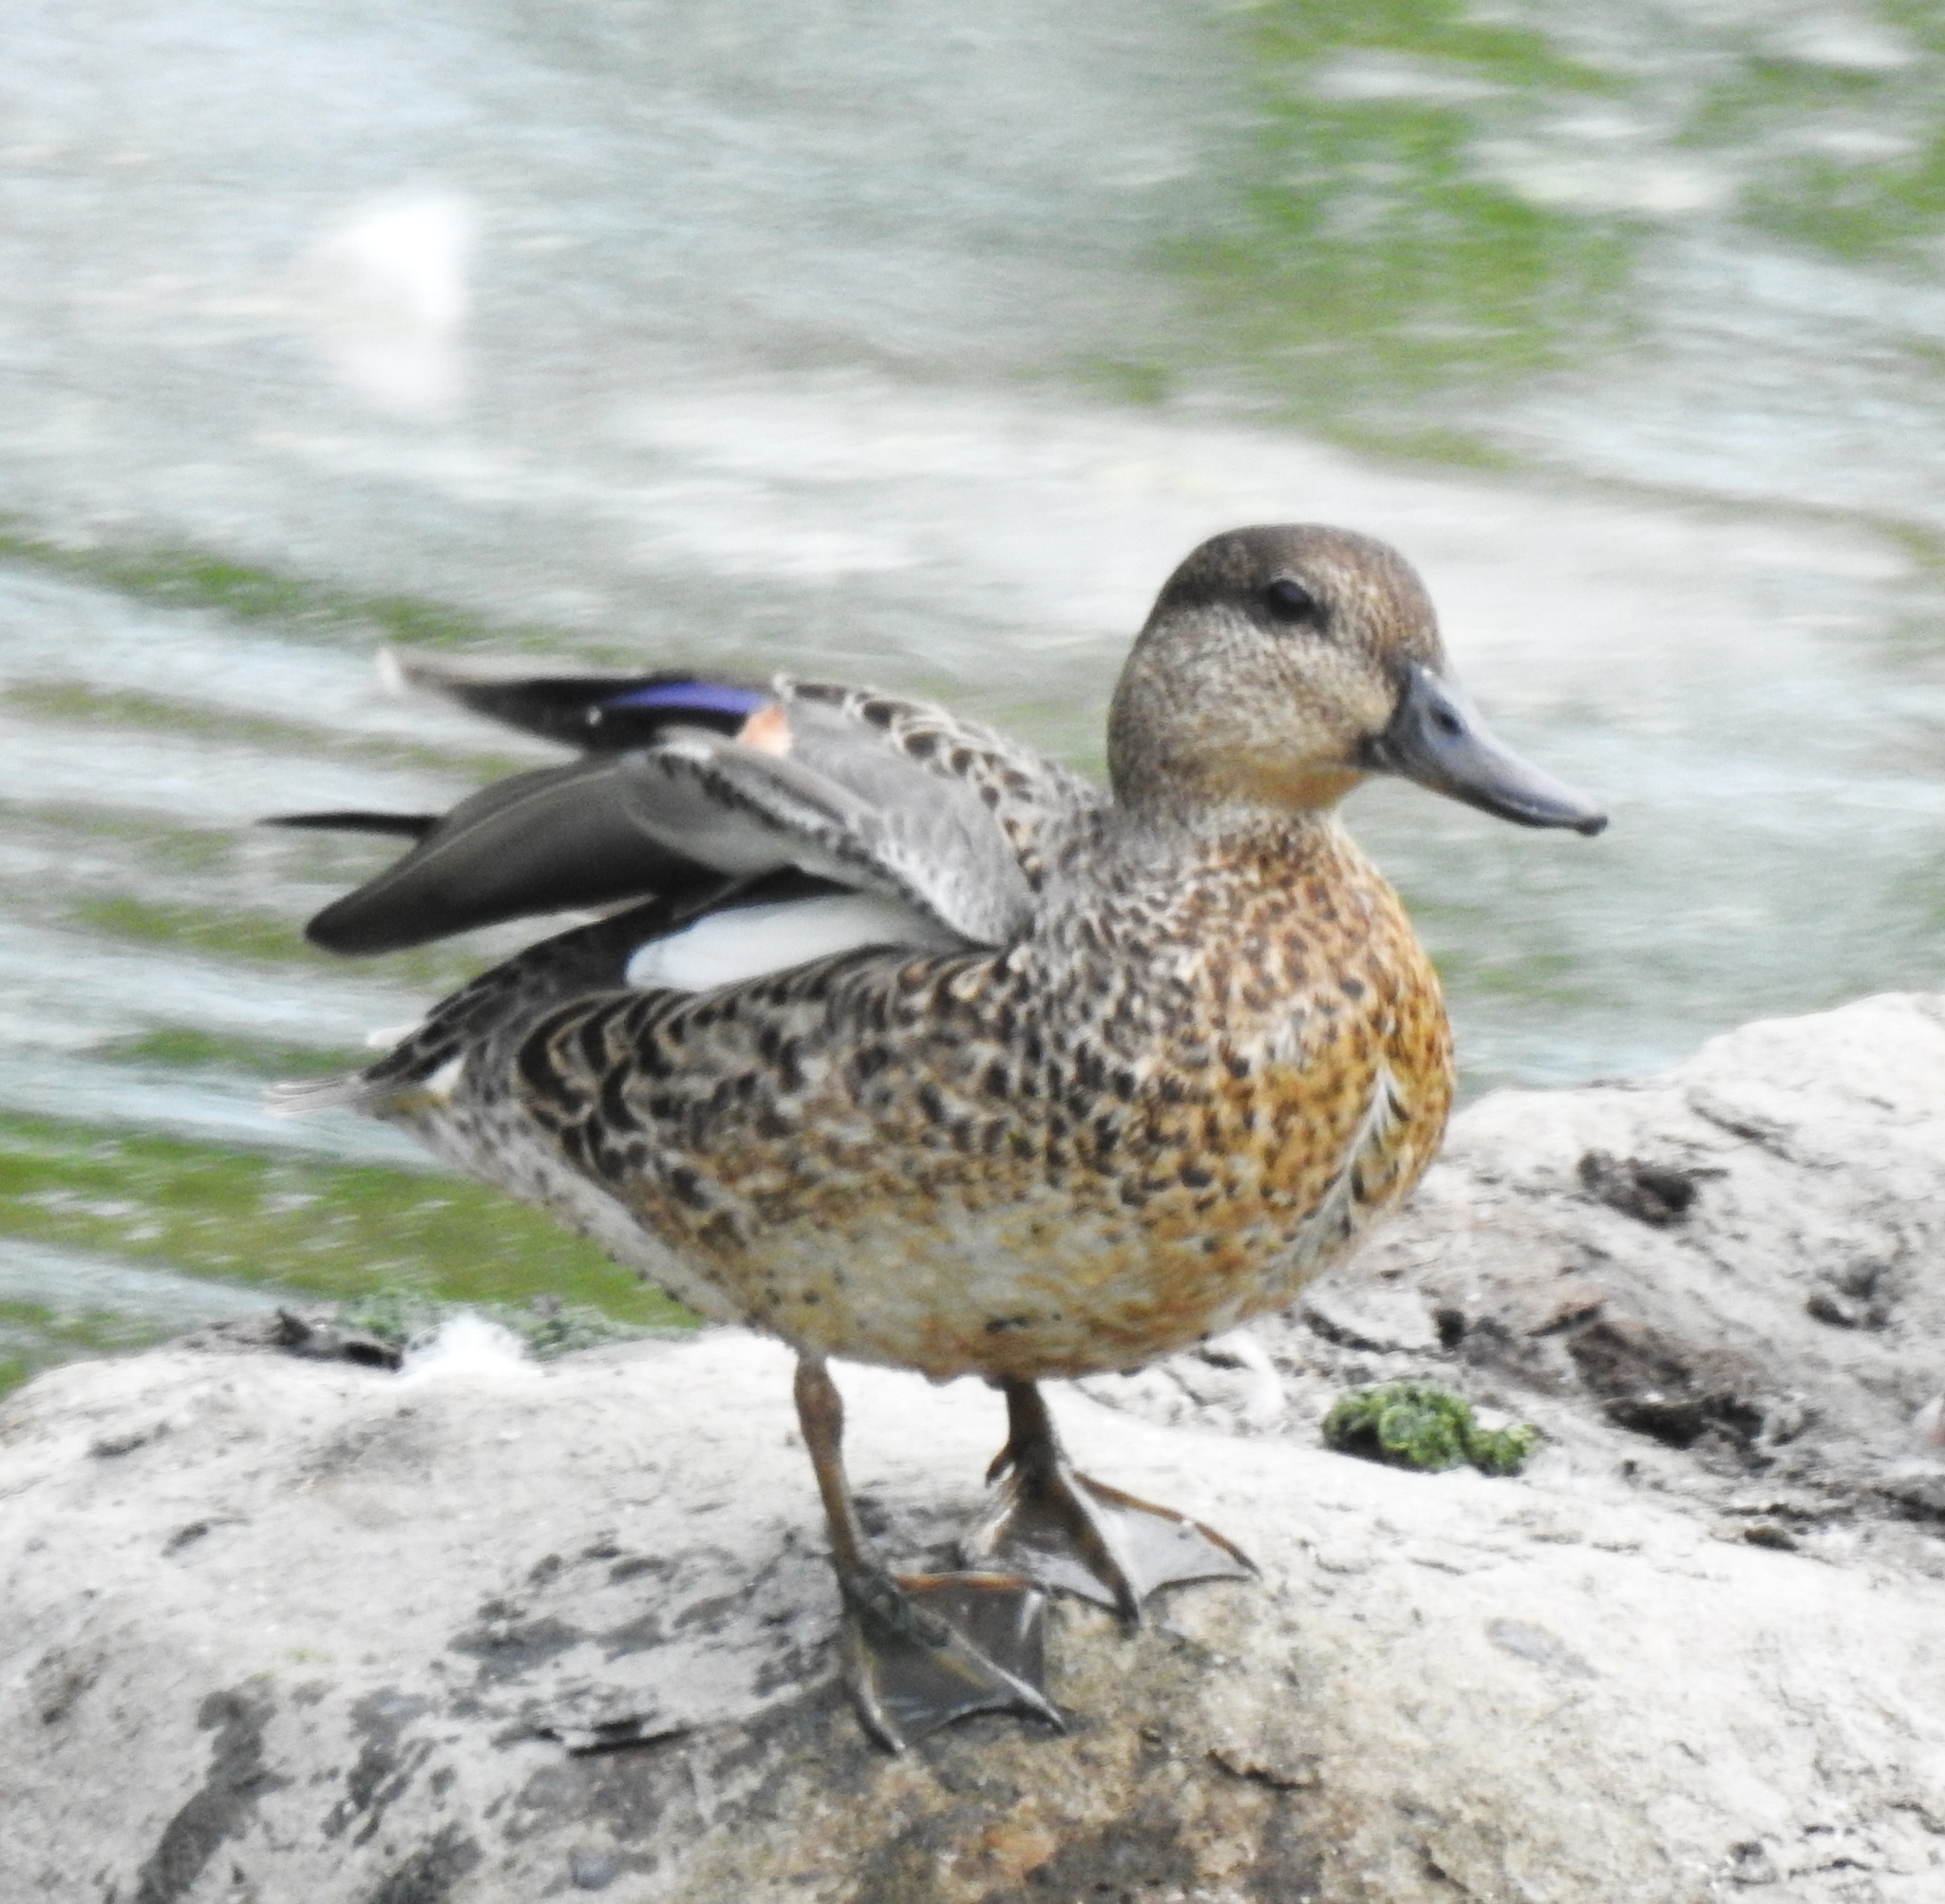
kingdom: Animalia
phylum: Chordata
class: Aves
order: Anseriformes
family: Anatidae
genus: Anas
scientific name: Anas crecca
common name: Eurasian teal
